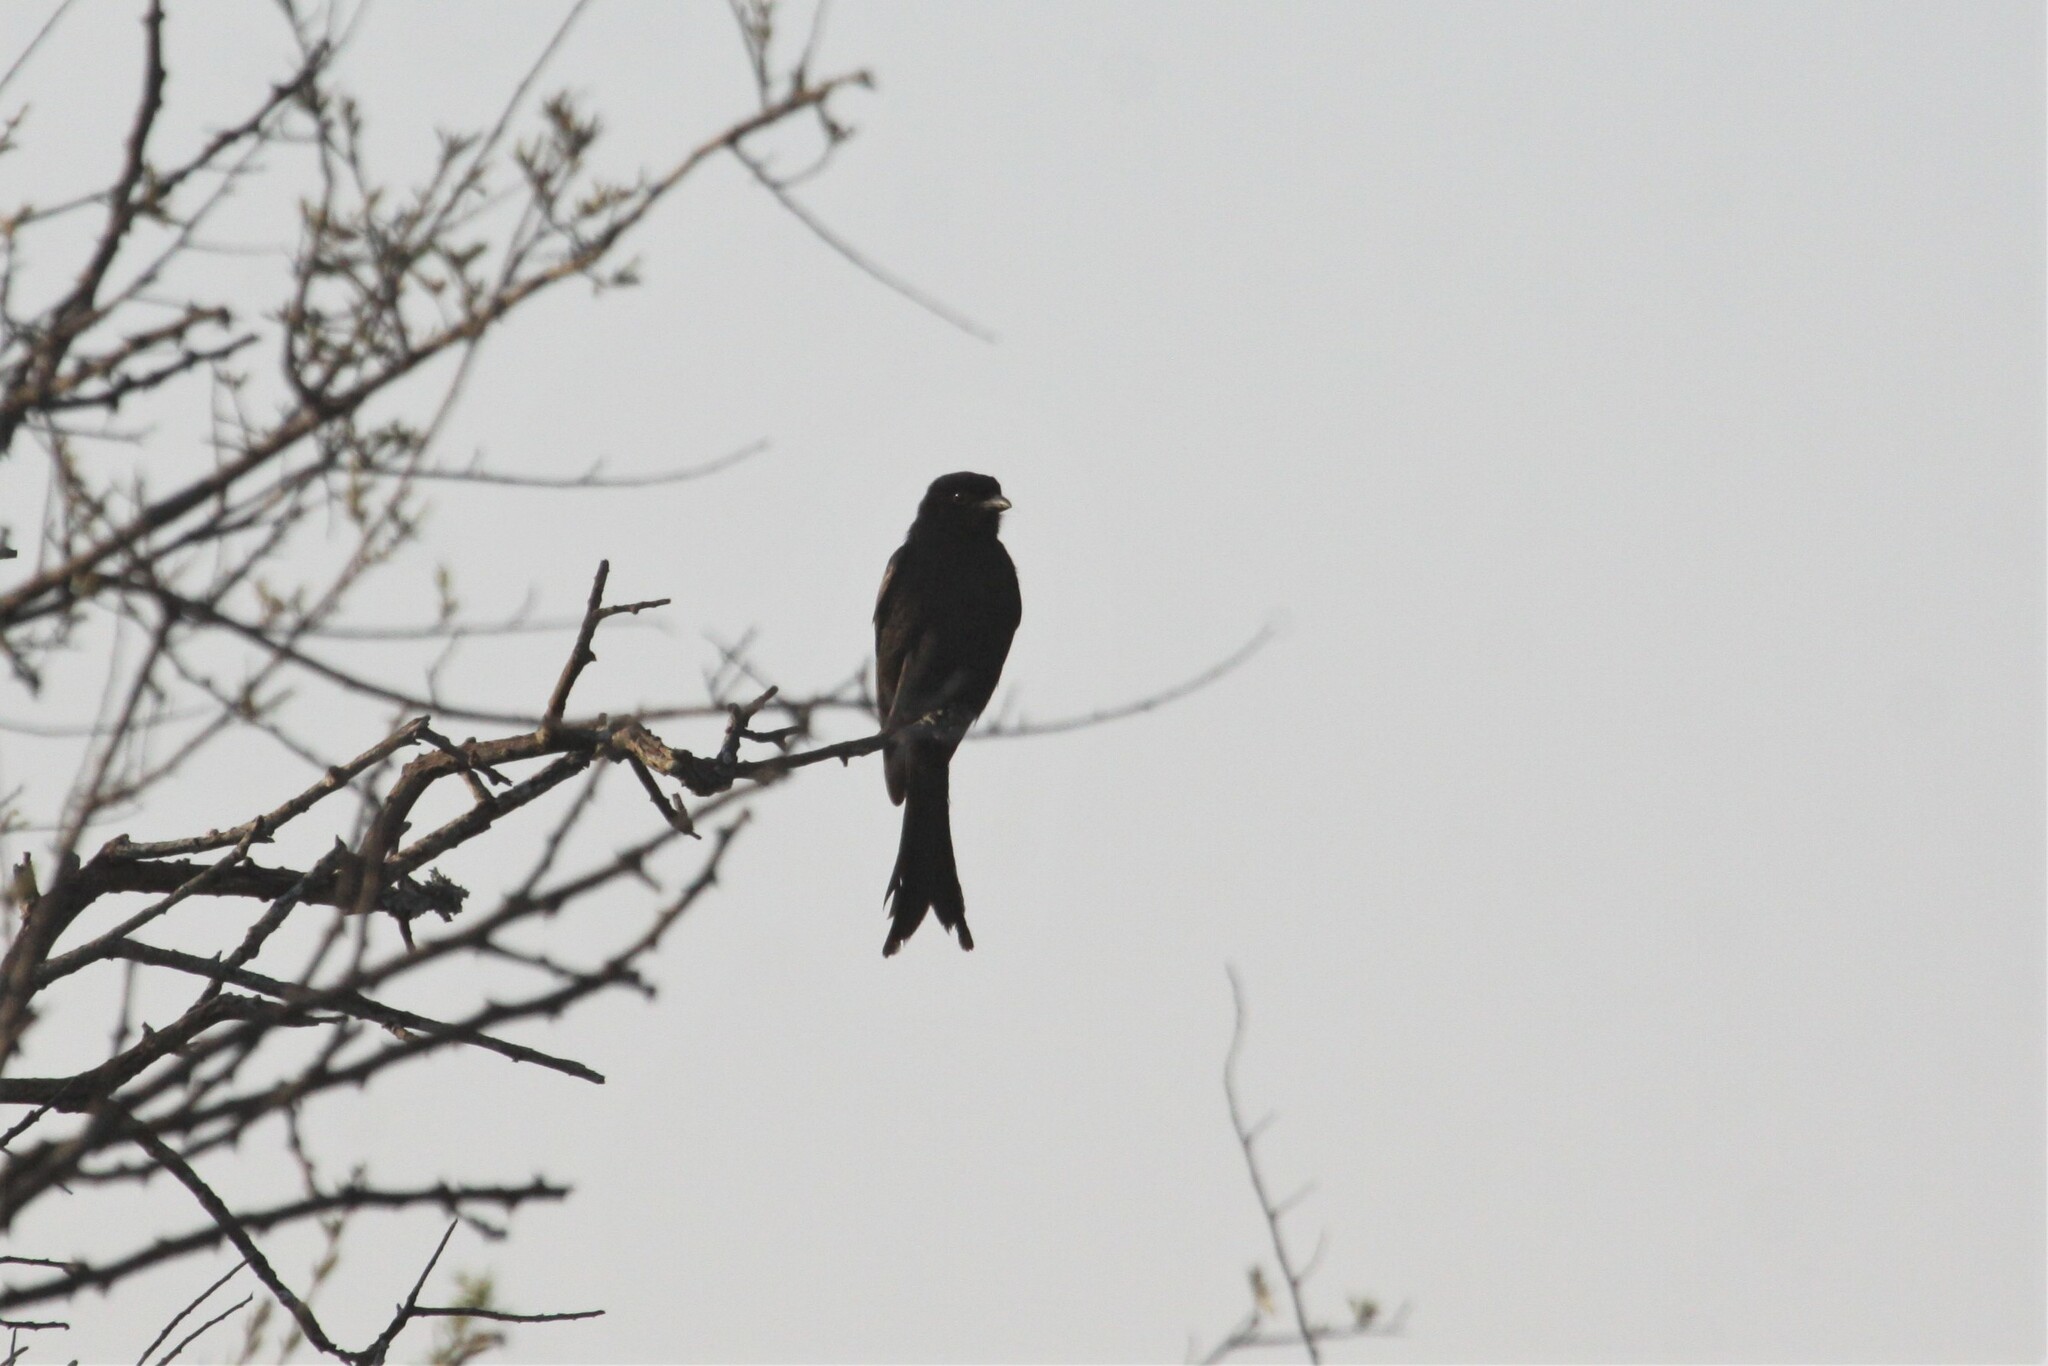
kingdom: Animalia
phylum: Chordata
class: Aves
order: Passeriformes
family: Dicruridae
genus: Dicrurus
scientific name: Dicrurus adsimilis
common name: Fork-tailed drongo
